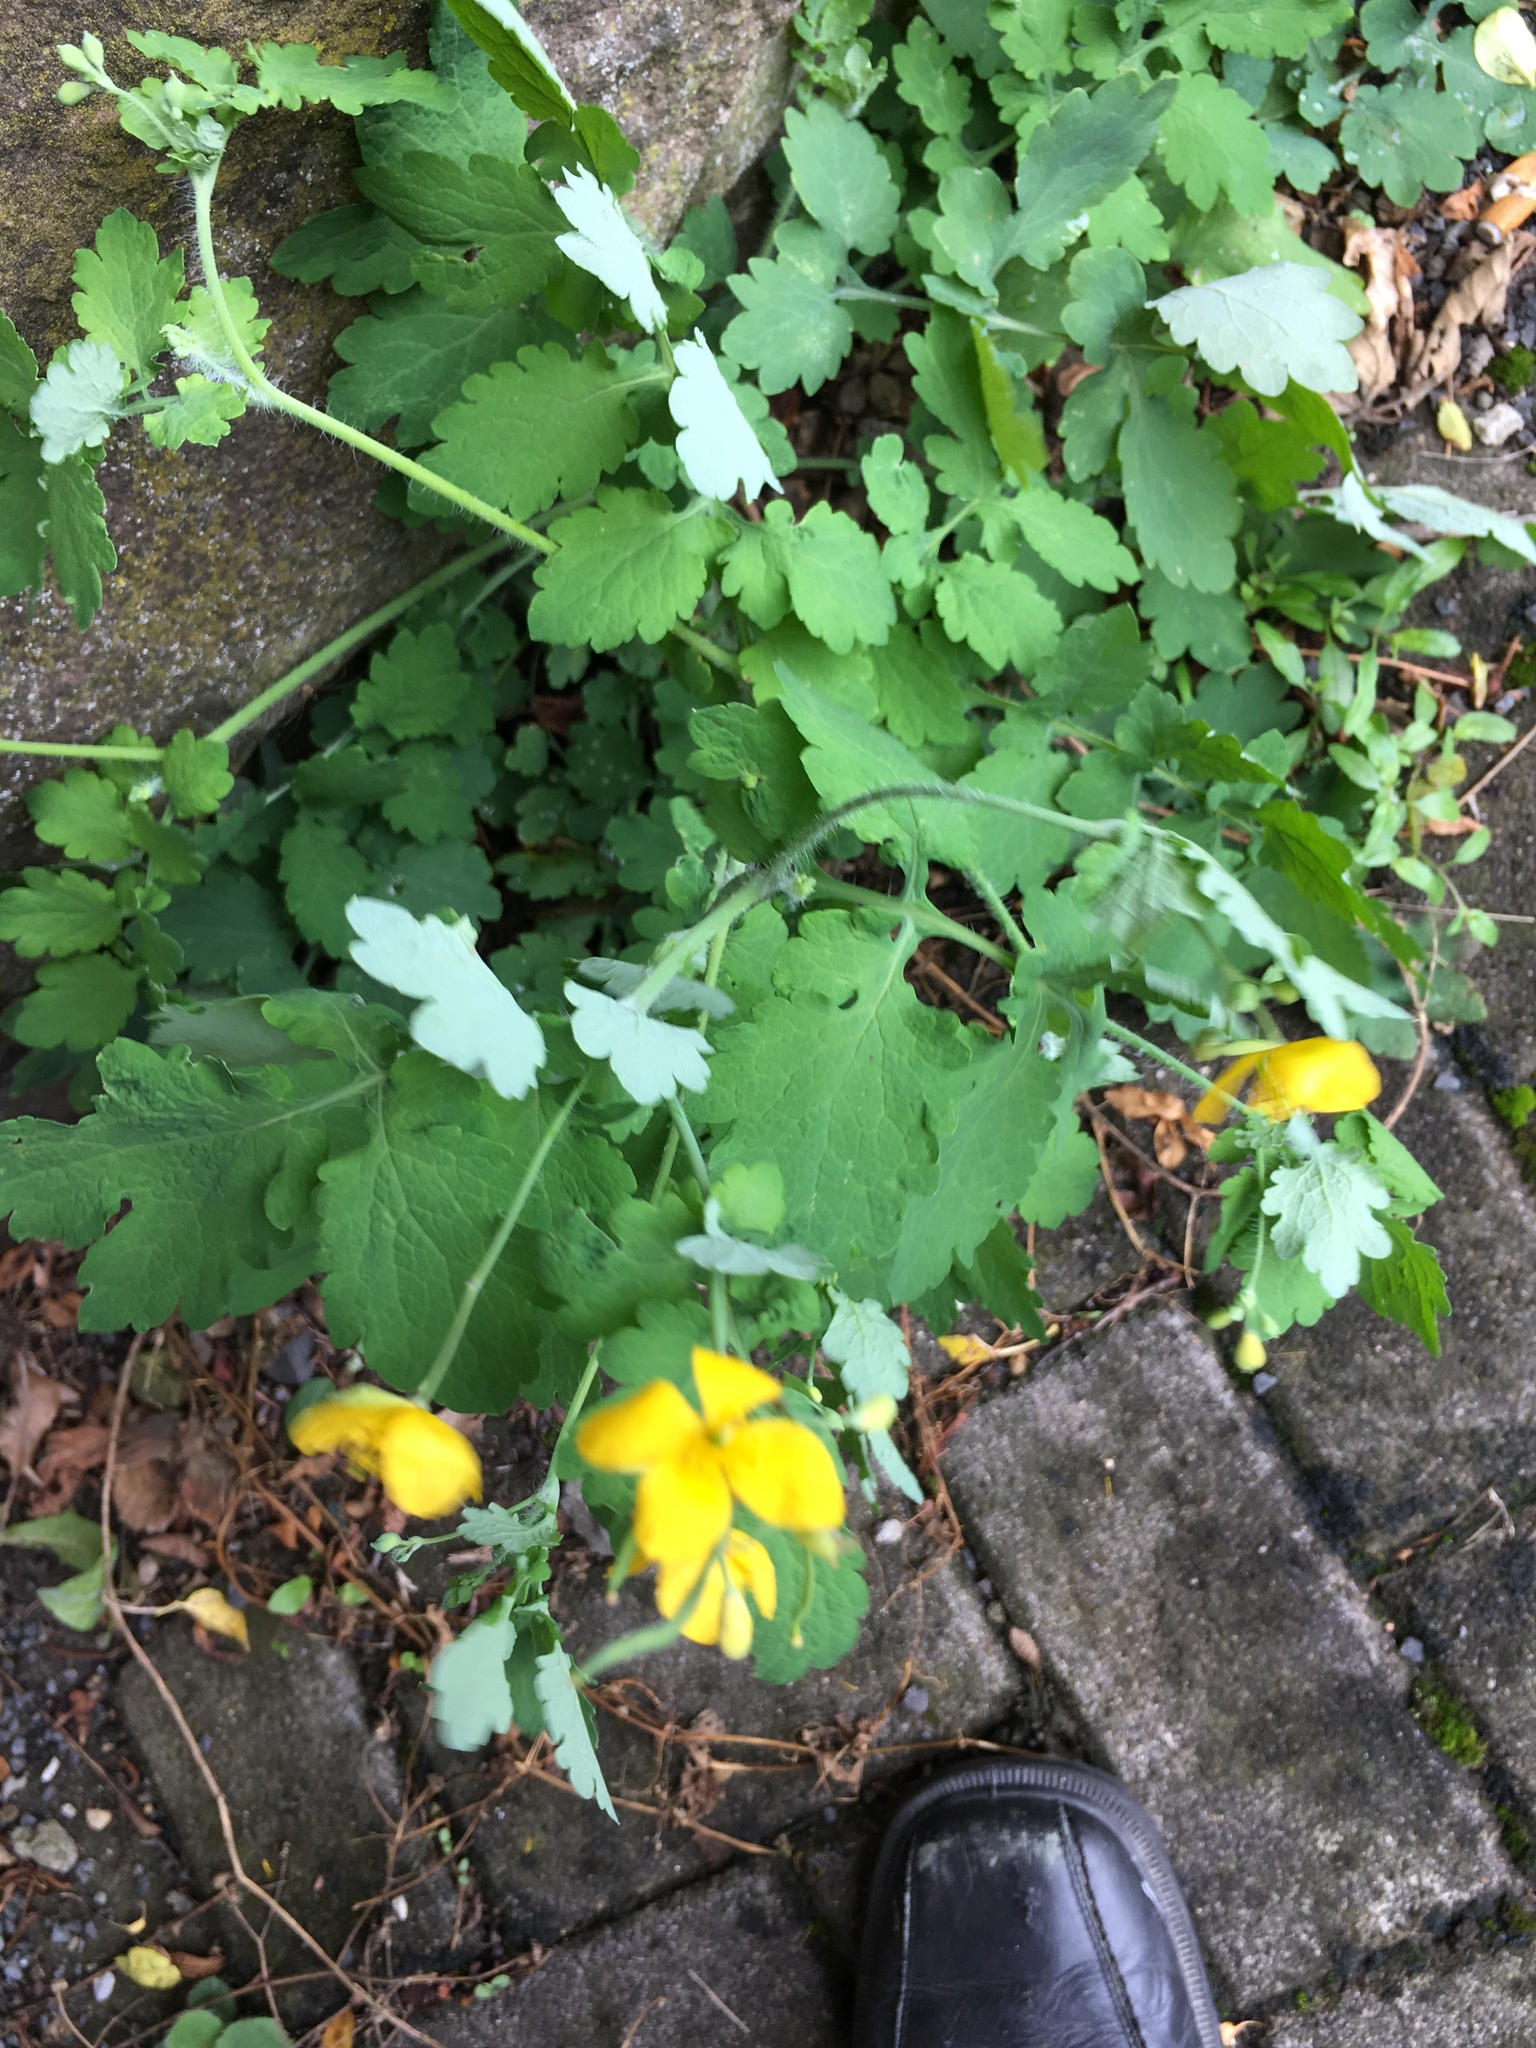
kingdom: Plantae
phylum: Tracheophyta
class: Magnoliopsida
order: Ranunculales
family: Papaveraceae
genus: Chelidonium
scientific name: Chelidonium majus
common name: Greater celandine
